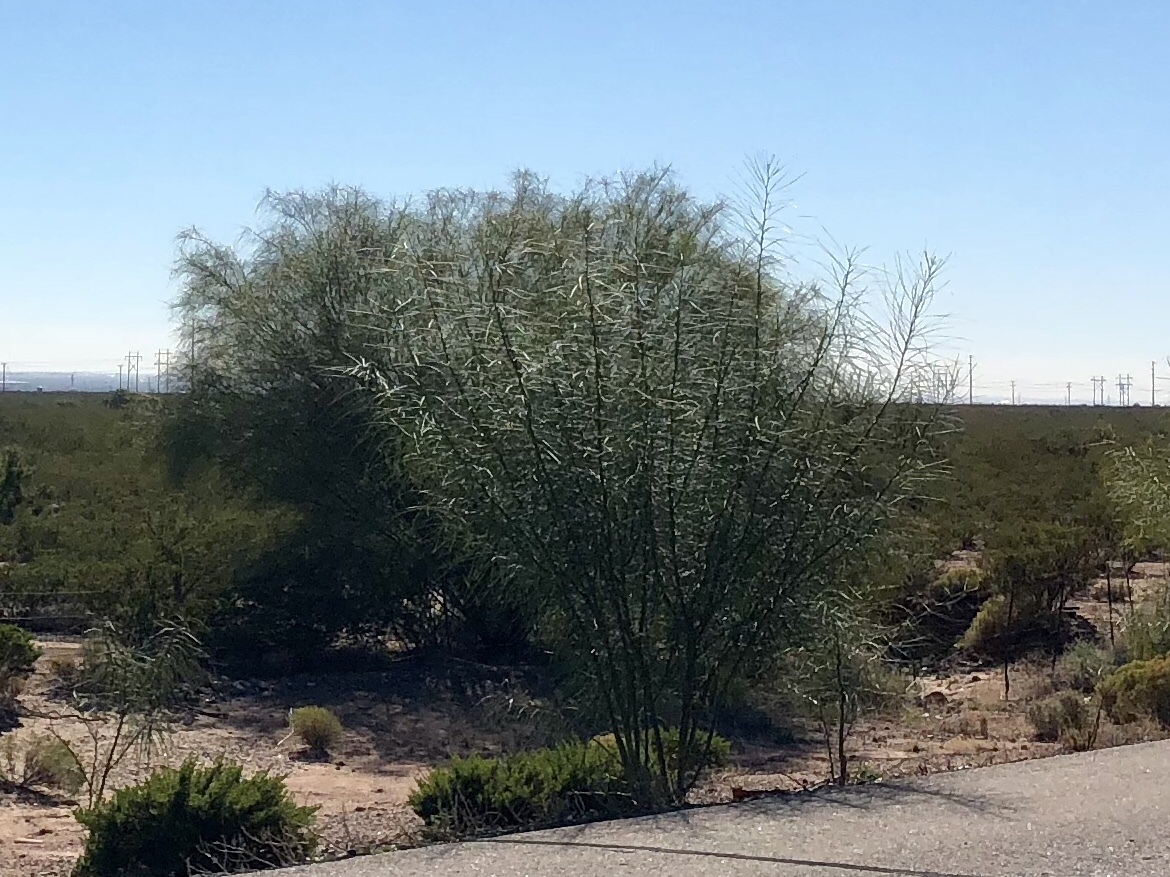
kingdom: Plantae
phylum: Tracheophyta
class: Magnoliopsida
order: Fabales
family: Fabaceae
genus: Parkinsonia
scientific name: Parkinsonia aculeata
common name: Jerusalem thorn
